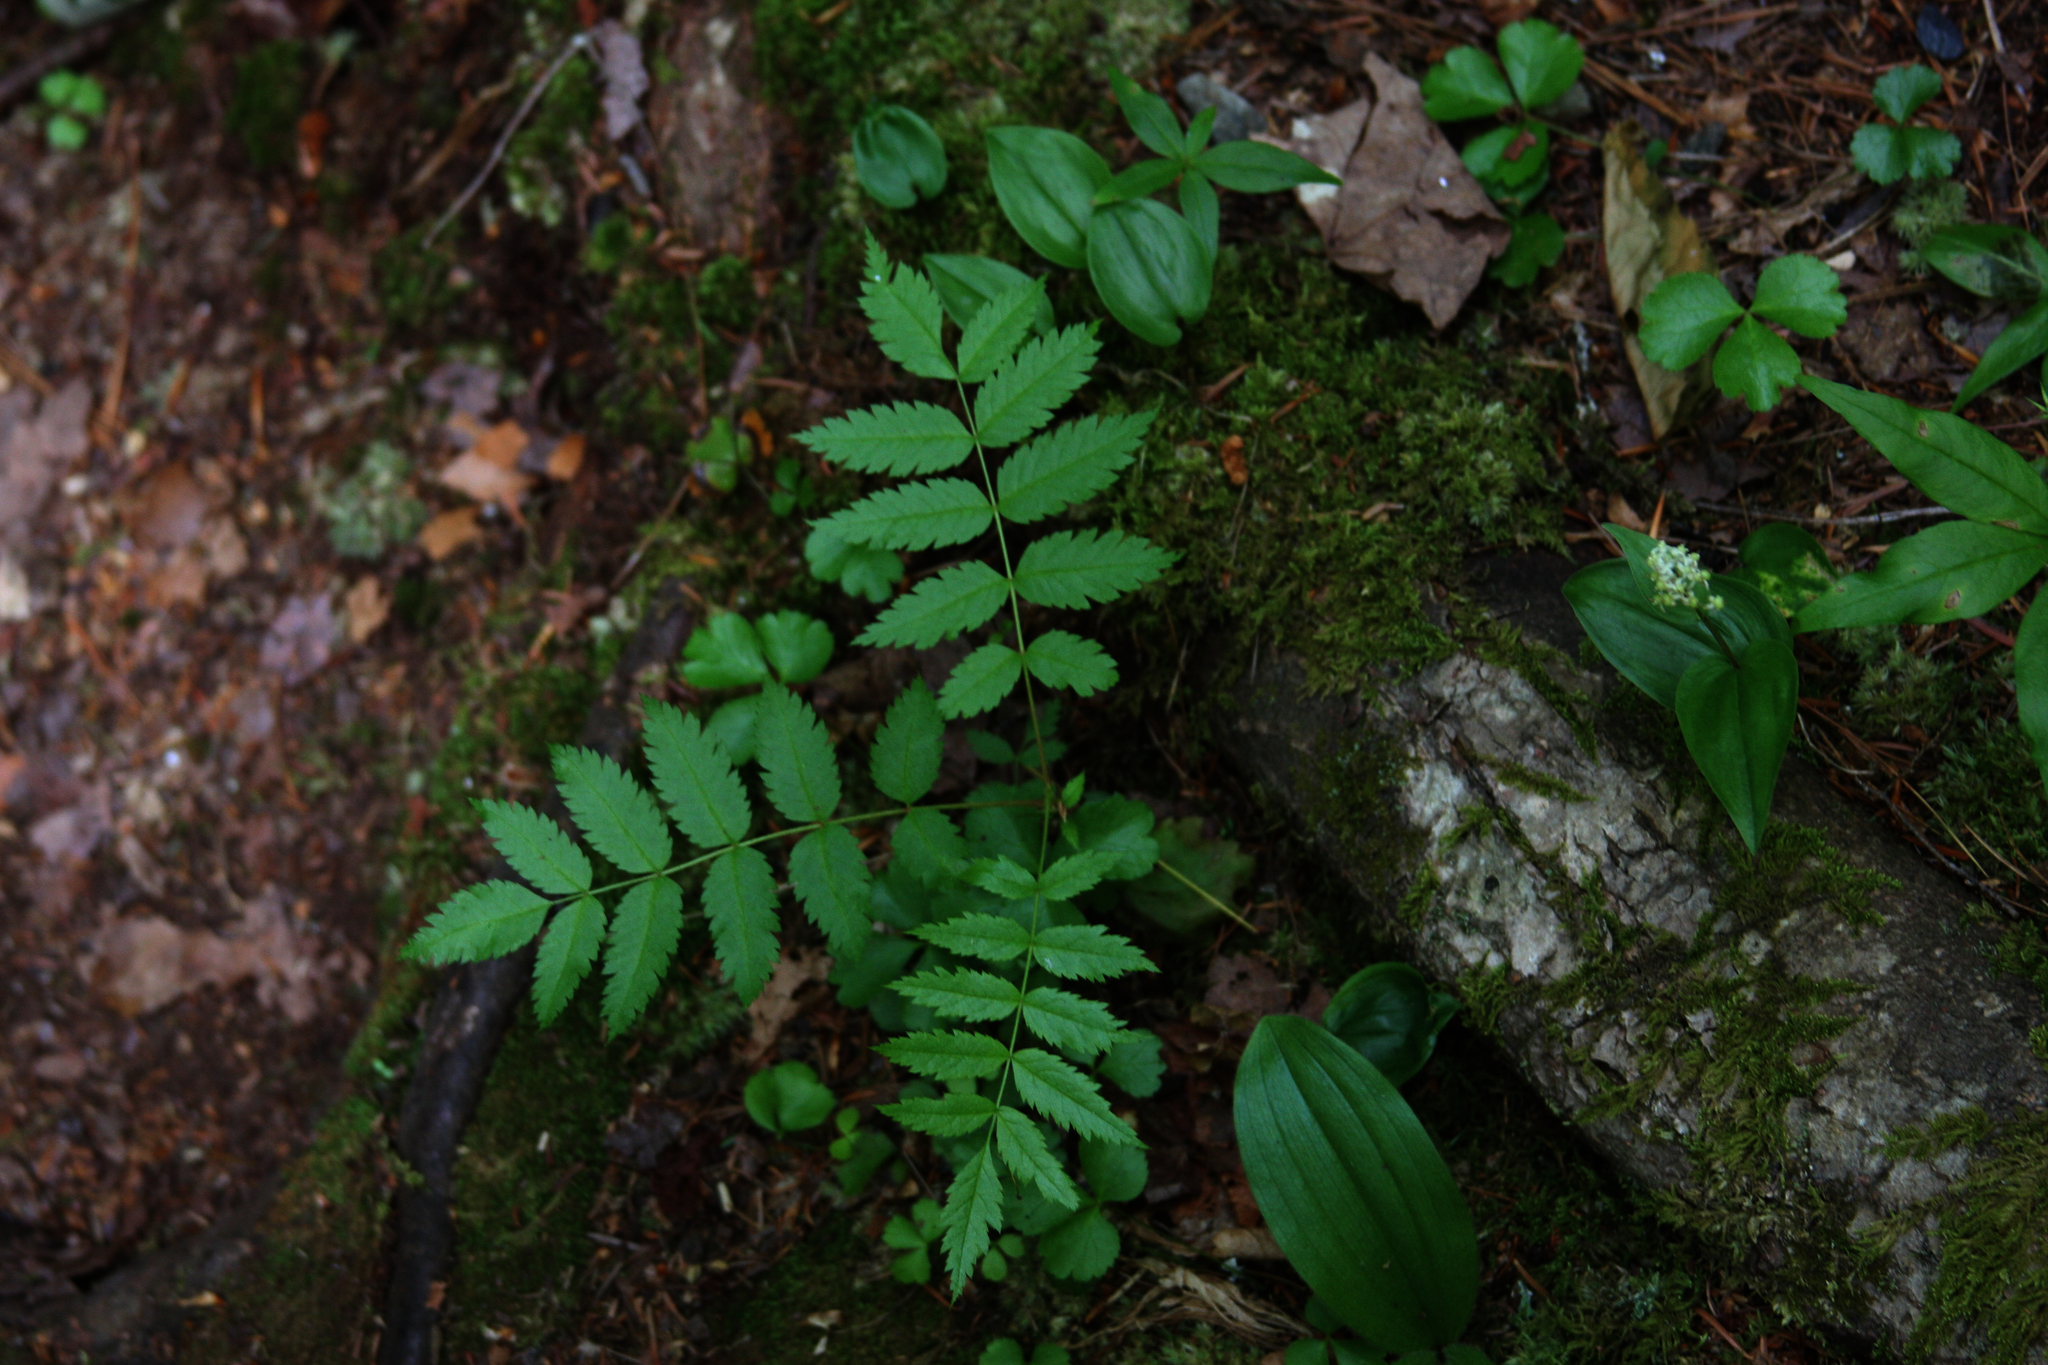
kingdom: Plantae
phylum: Tracheophyta
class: Liliopsida
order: Asparagales
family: Asparagaceae
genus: Maianthemum
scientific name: Maianthemum canadense
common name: False lily-of-the-valley
